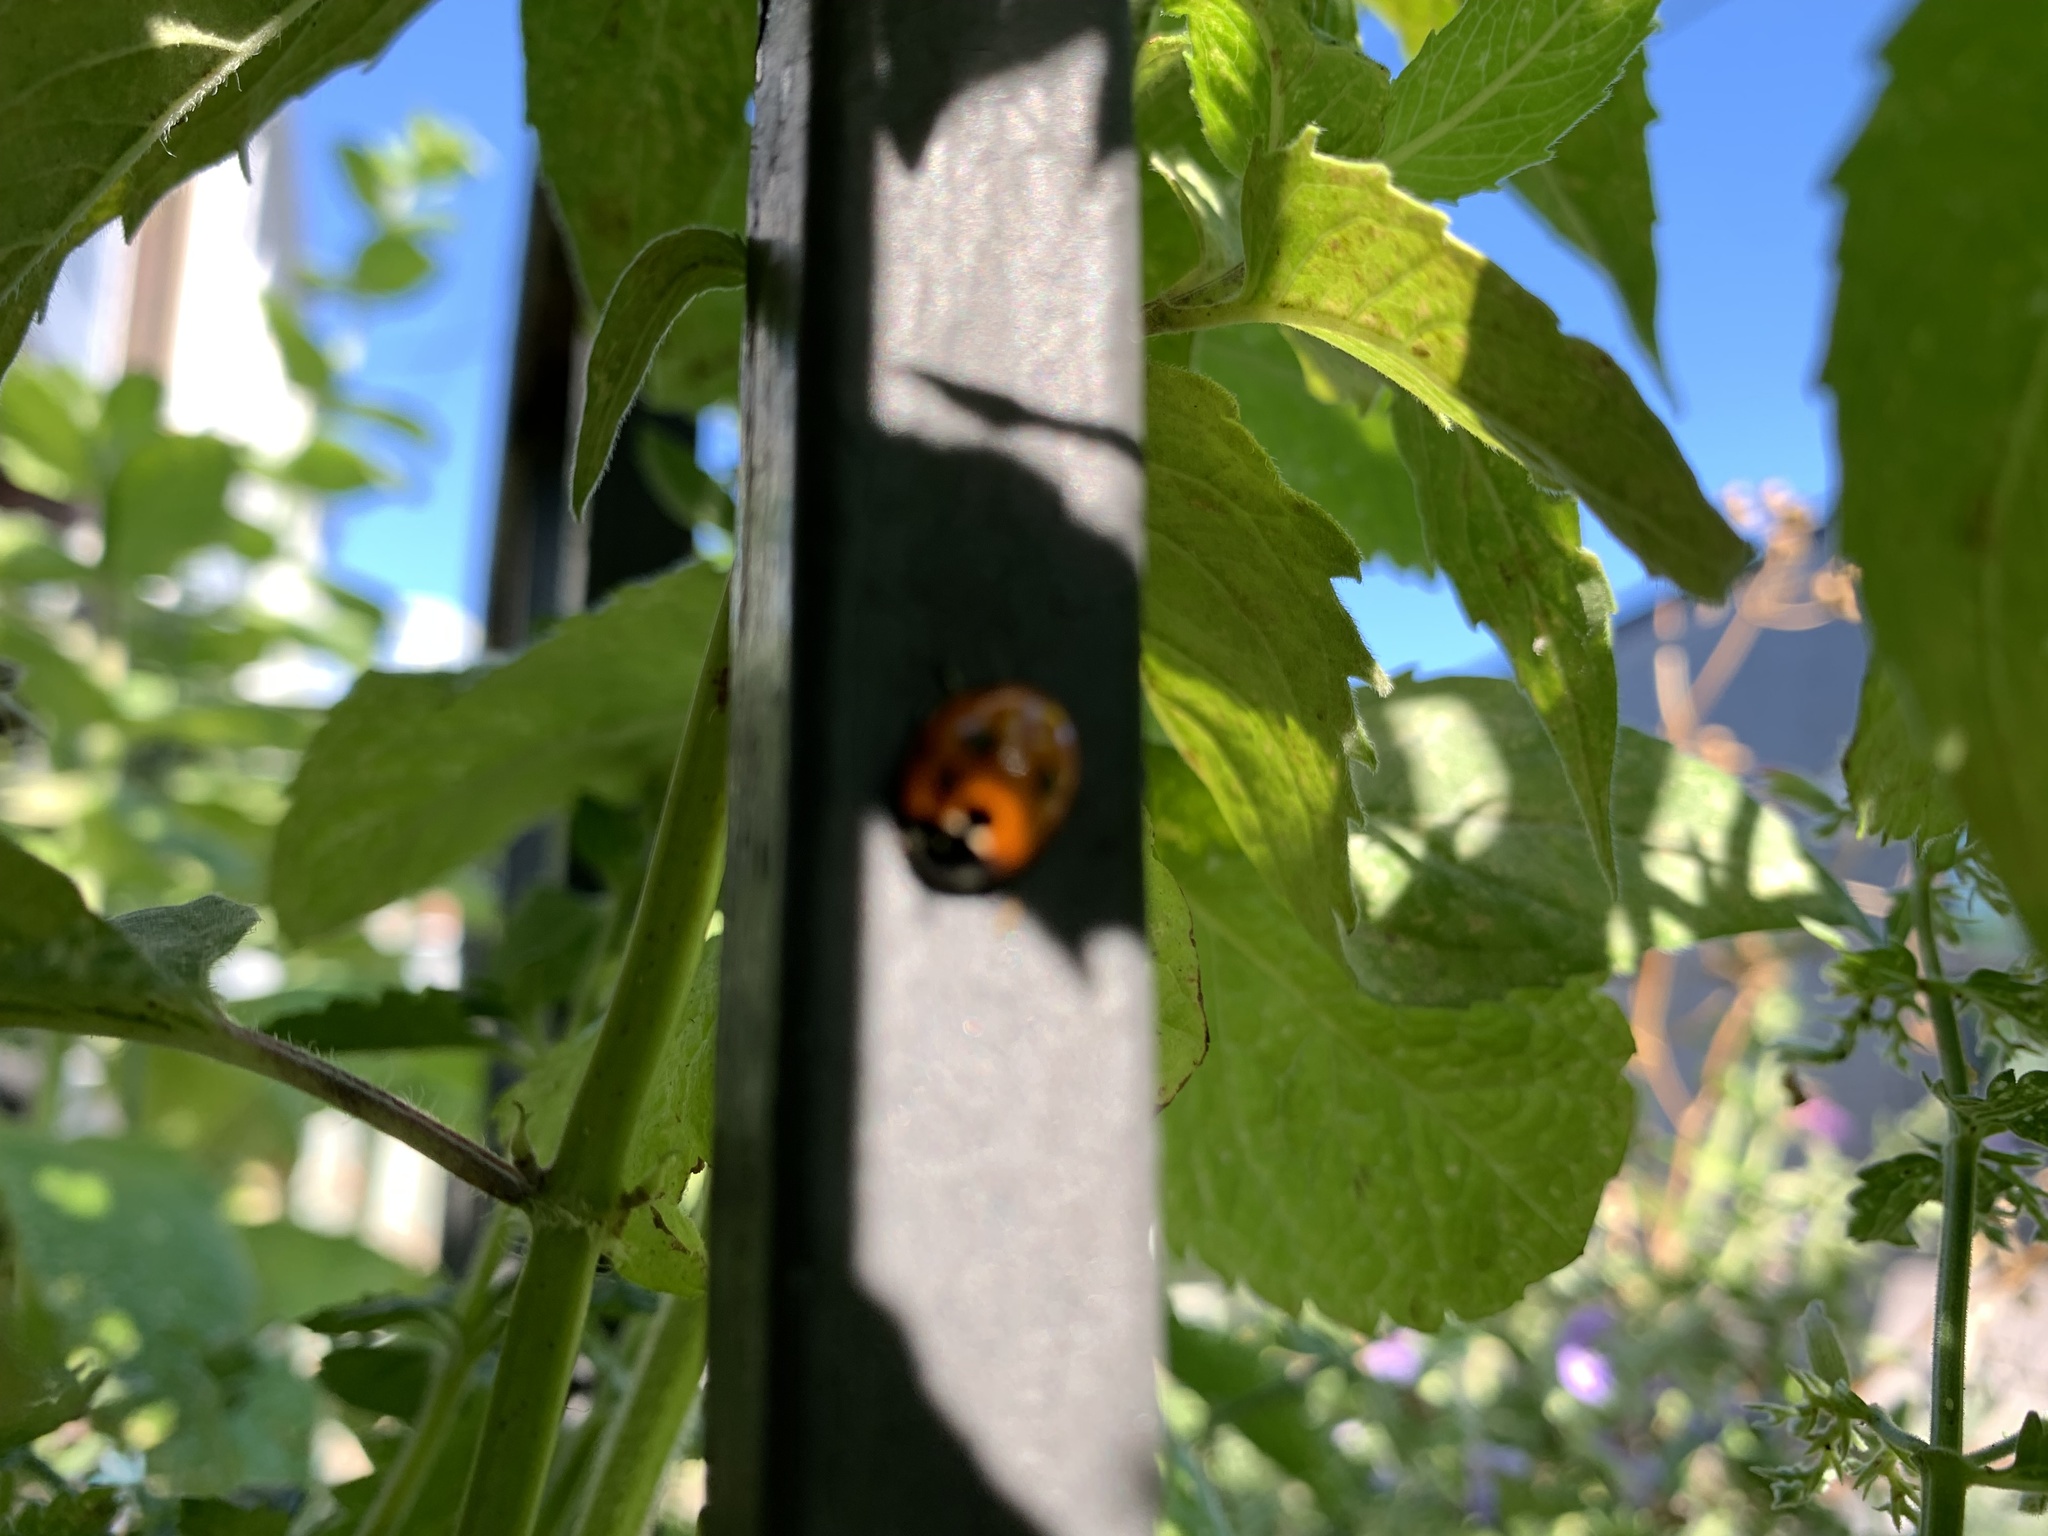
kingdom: Animalia
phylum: Arthropoda
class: Insecta
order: Coleoptera
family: Coccinellidae
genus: Coccinella
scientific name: Coccinella septempunctata
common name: Sevenspotted lady beetle
